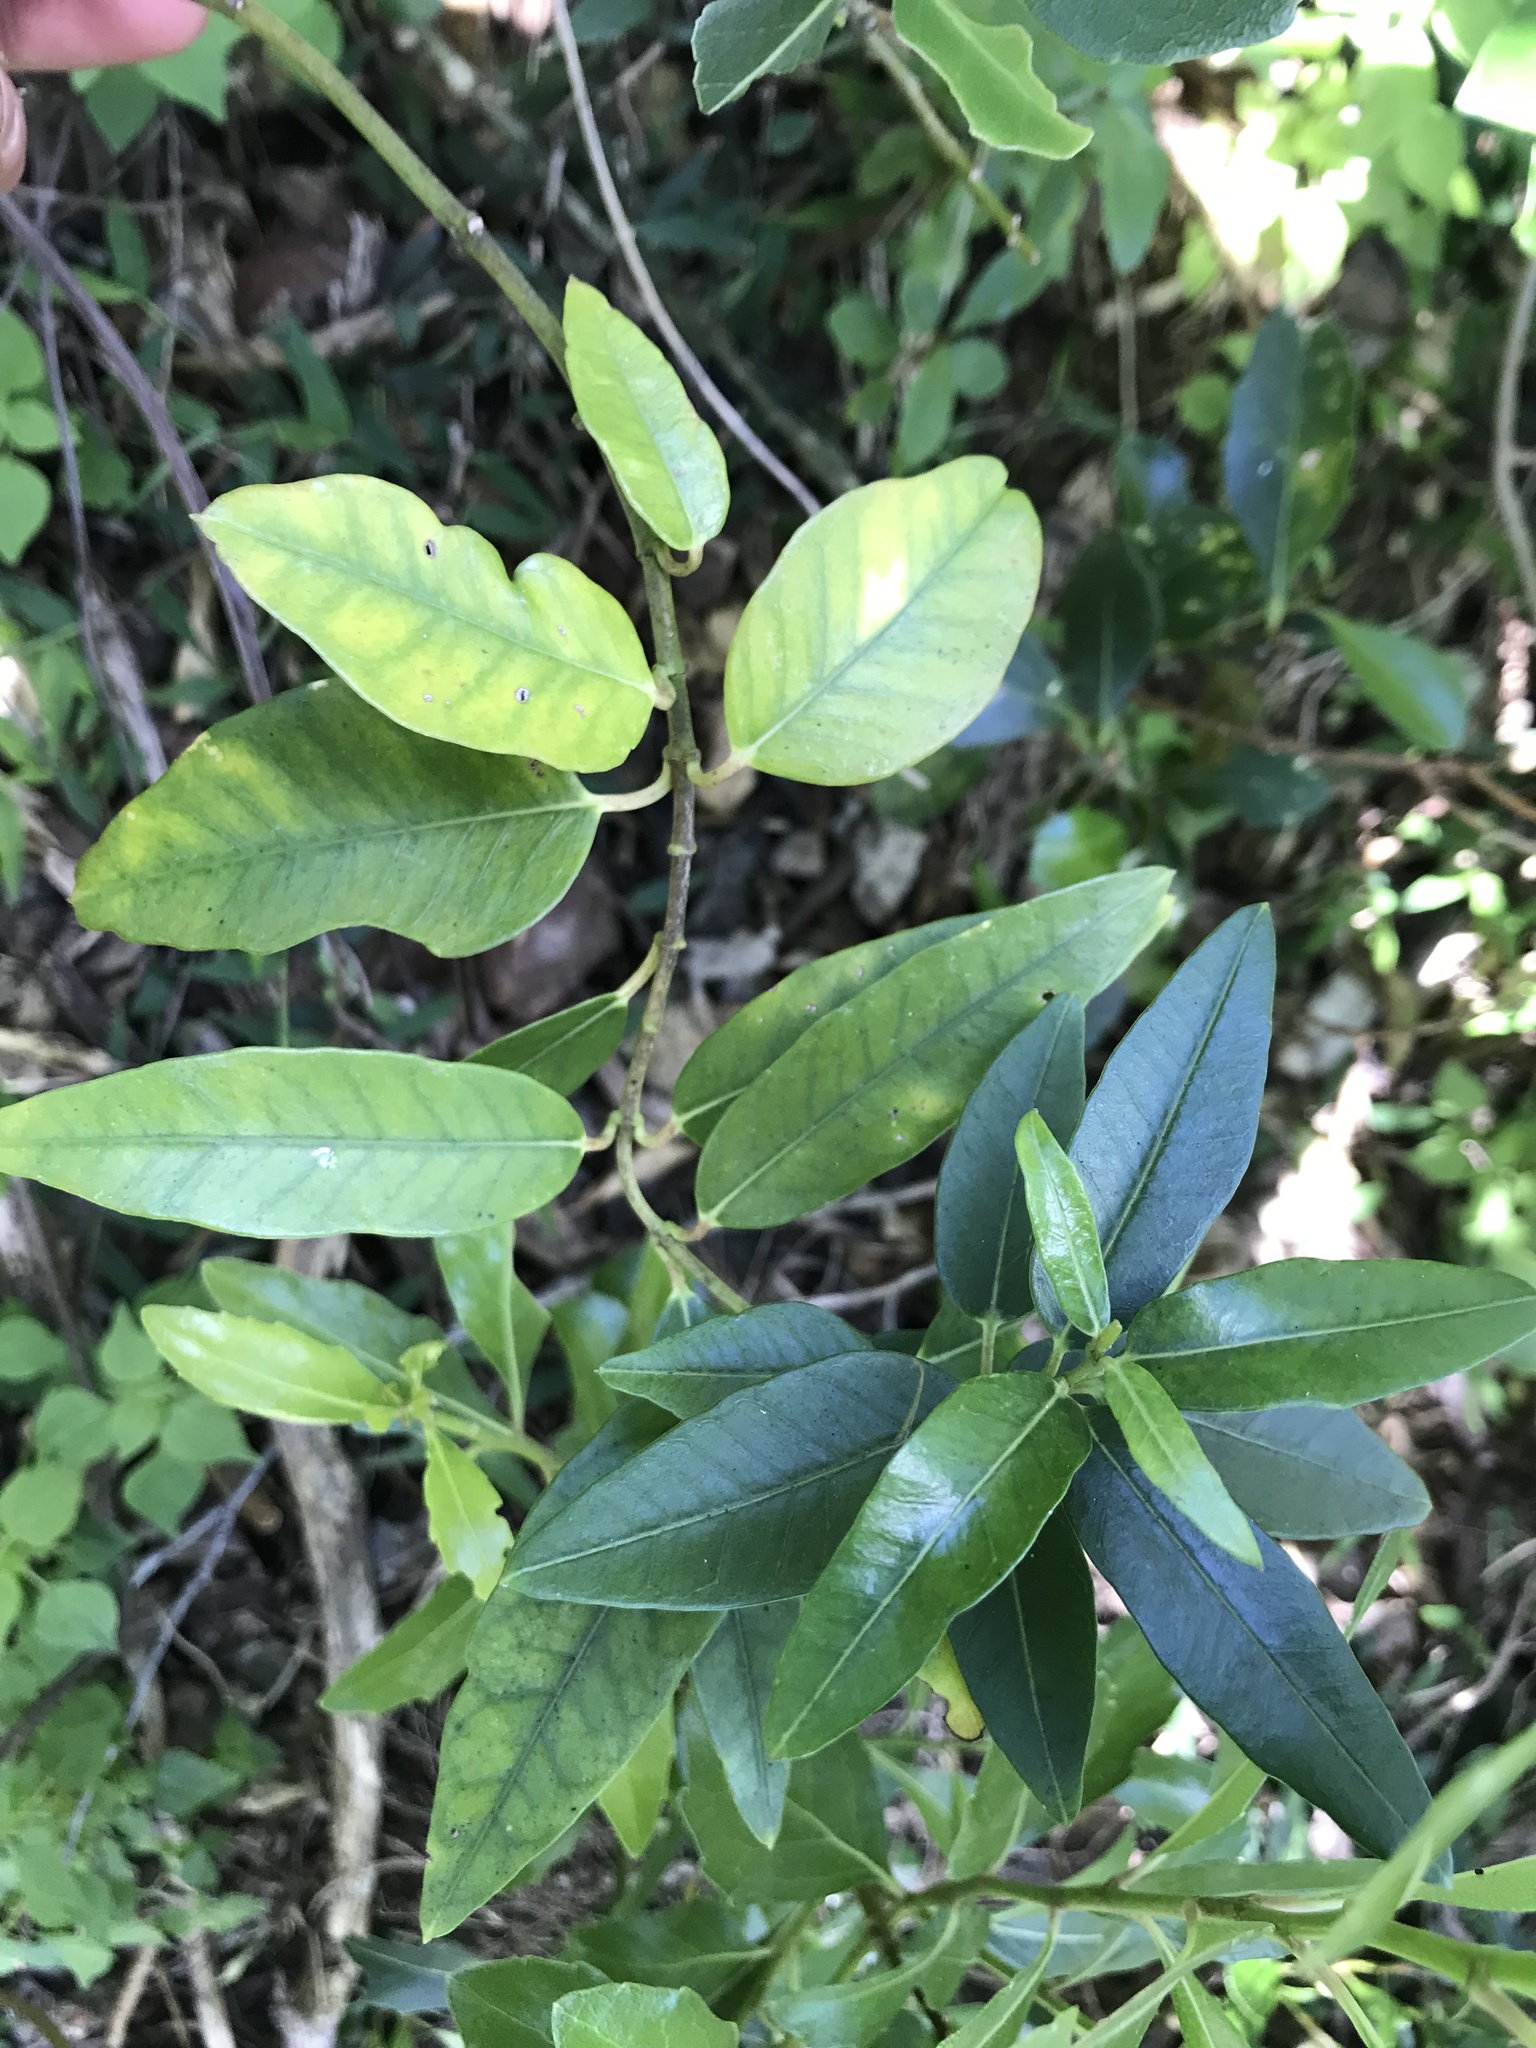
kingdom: Plantae
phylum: Tracheophyta
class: Magnoliopsida
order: Gentianales
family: Apocynaceae
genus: Parsonsia
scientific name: Parsonsia heterophylla
